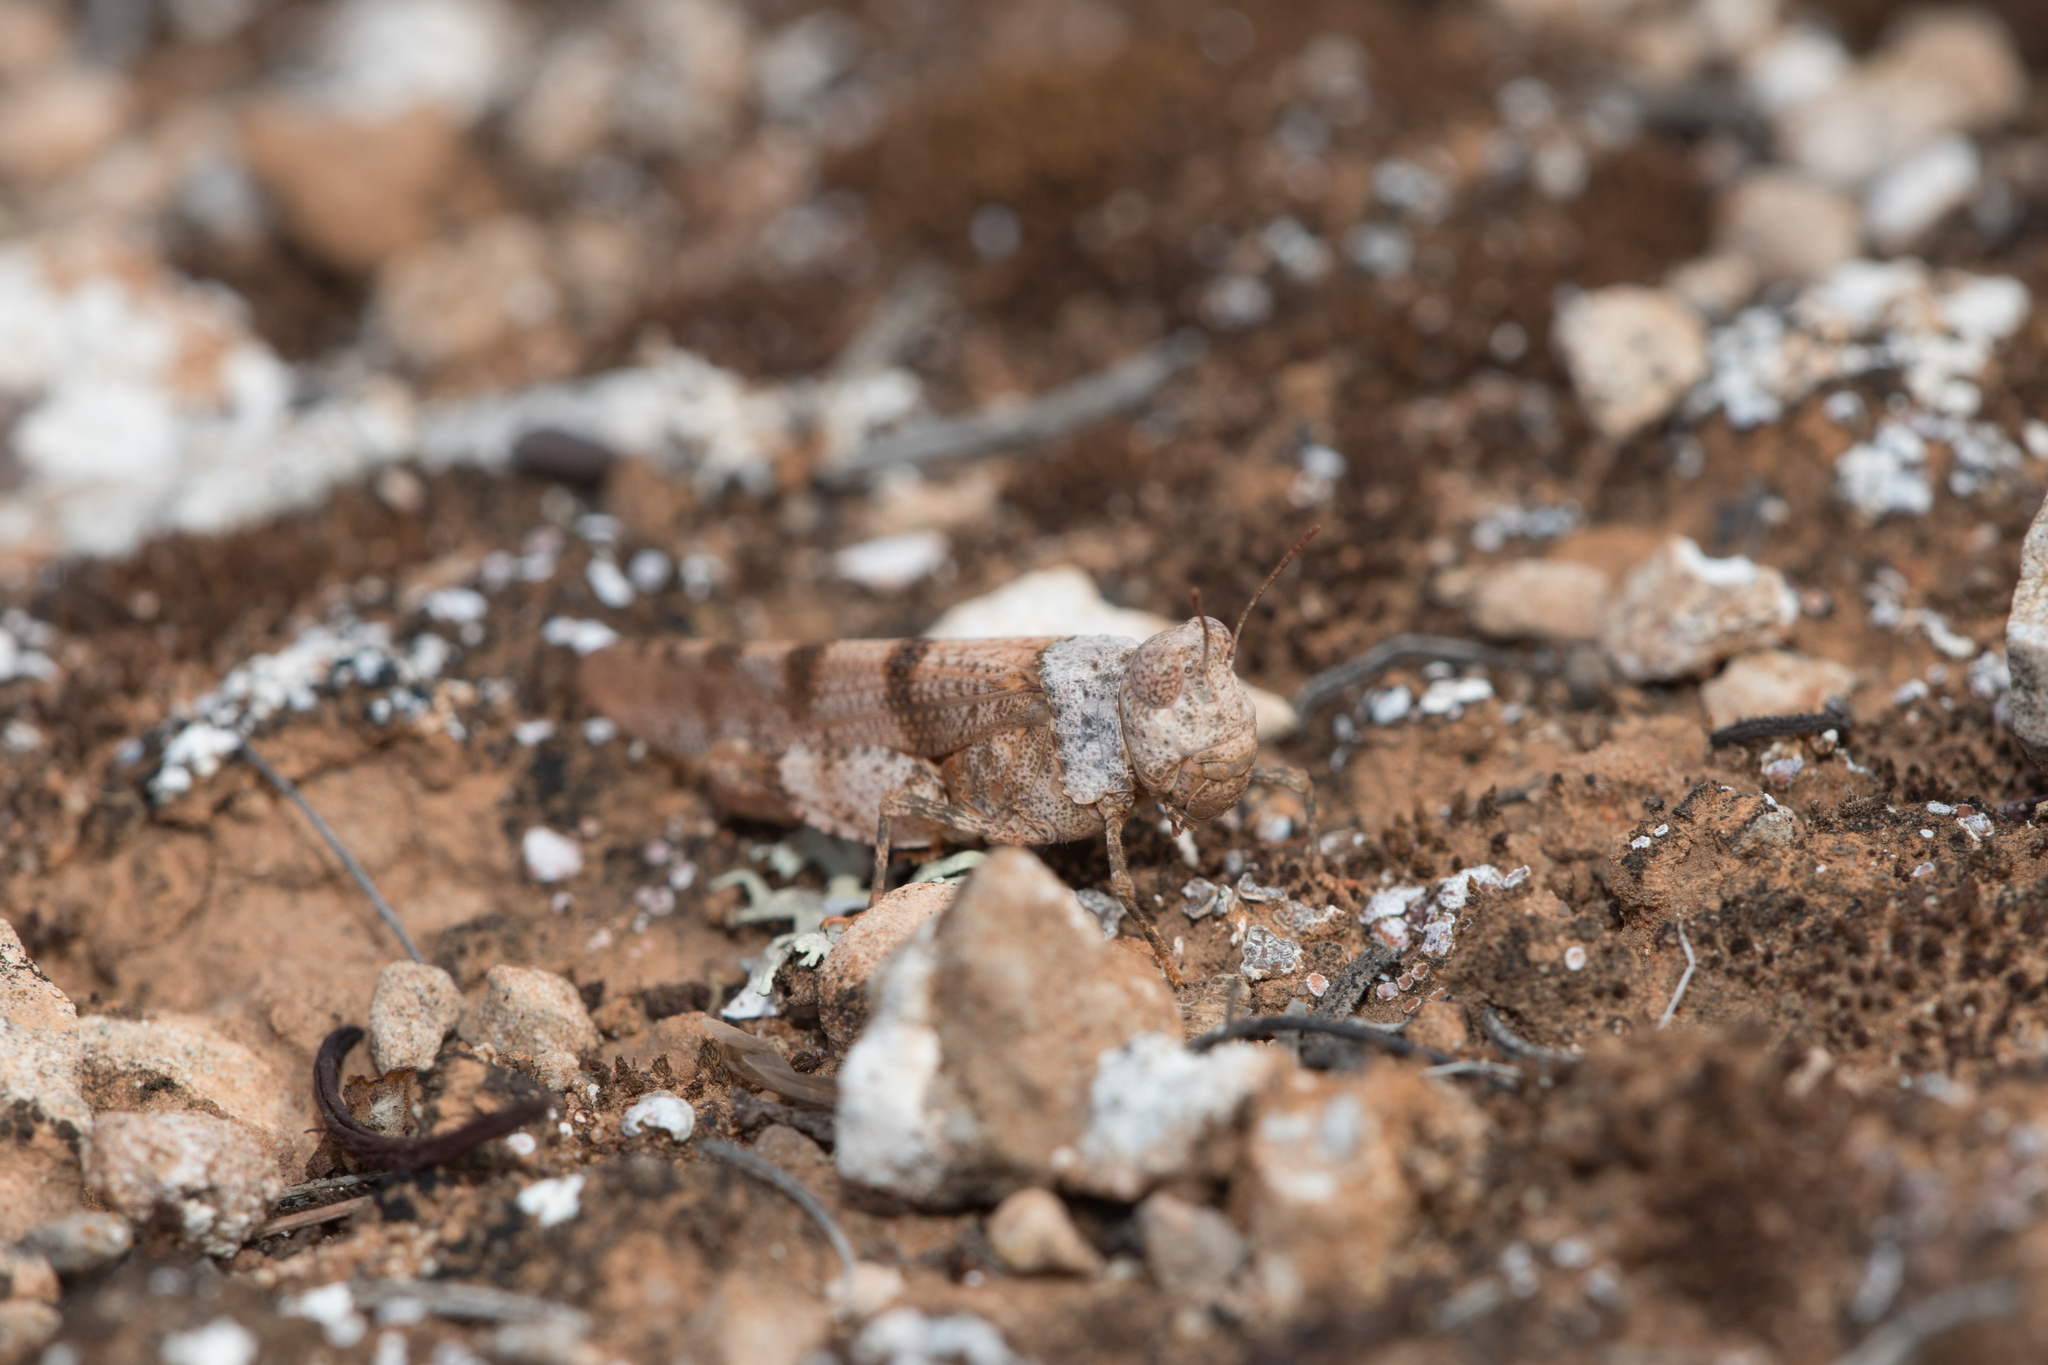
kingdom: Animalia
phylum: Arthropoda
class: Insecta
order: Orthoptera
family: Acrididae
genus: Qualetta
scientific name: Qualetta maculata
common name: Spotted bandwing
